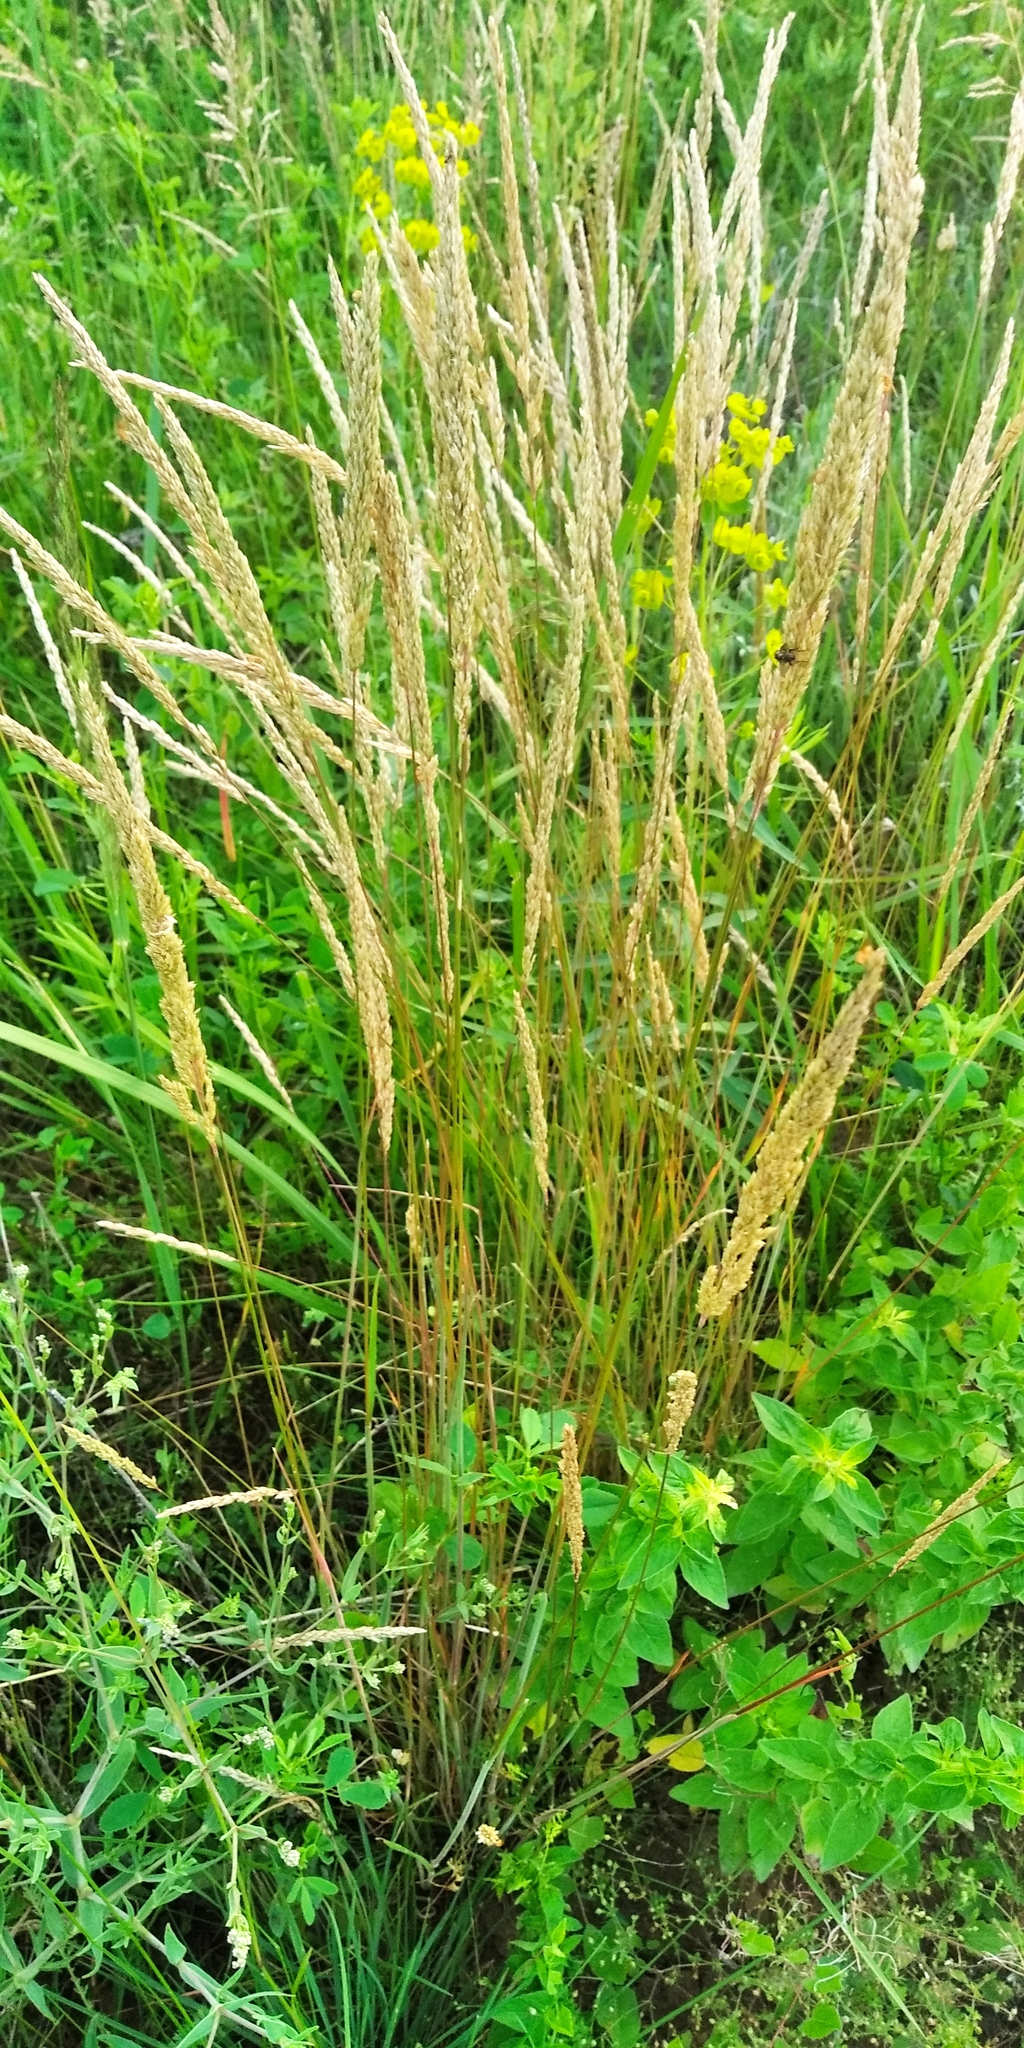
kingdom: Plantae
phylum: Tracheophyta
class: Liliopsida
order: Poales
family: Poaceae
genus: Koeleria
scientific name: Koeleria macrantha
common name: Crested hair-grass
